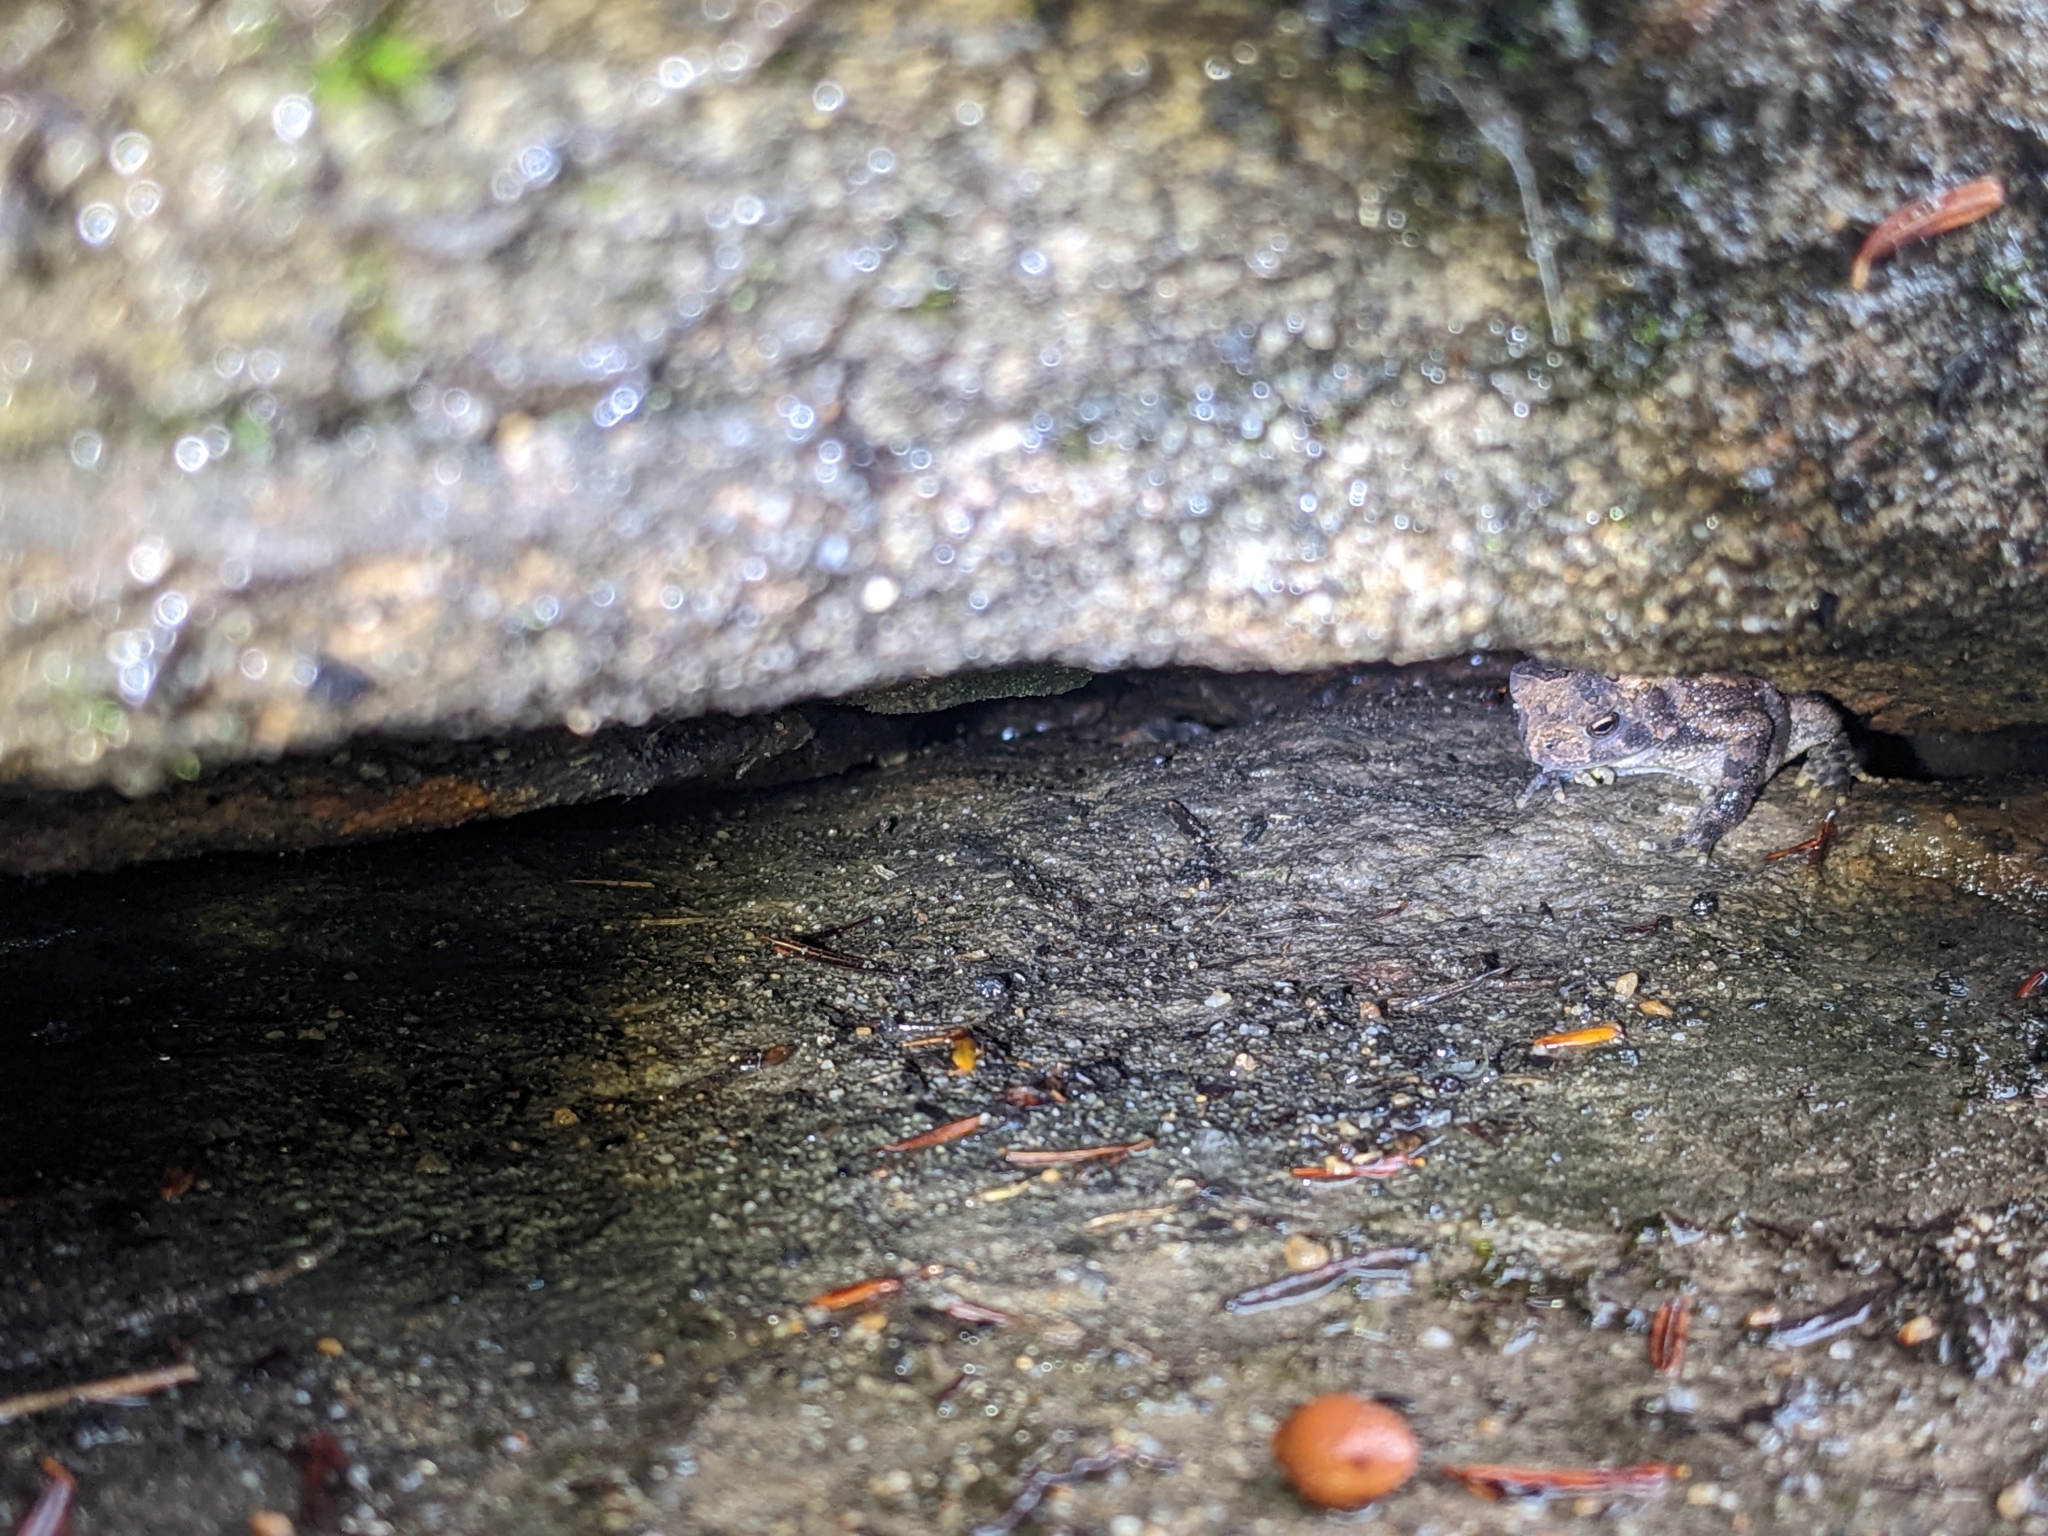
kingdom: Animalia
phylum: Chordata
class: Amphibia
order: Anura
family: Bufonidae
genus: Anaxyrus
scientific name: Anaxyrus americanus
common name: American toad
